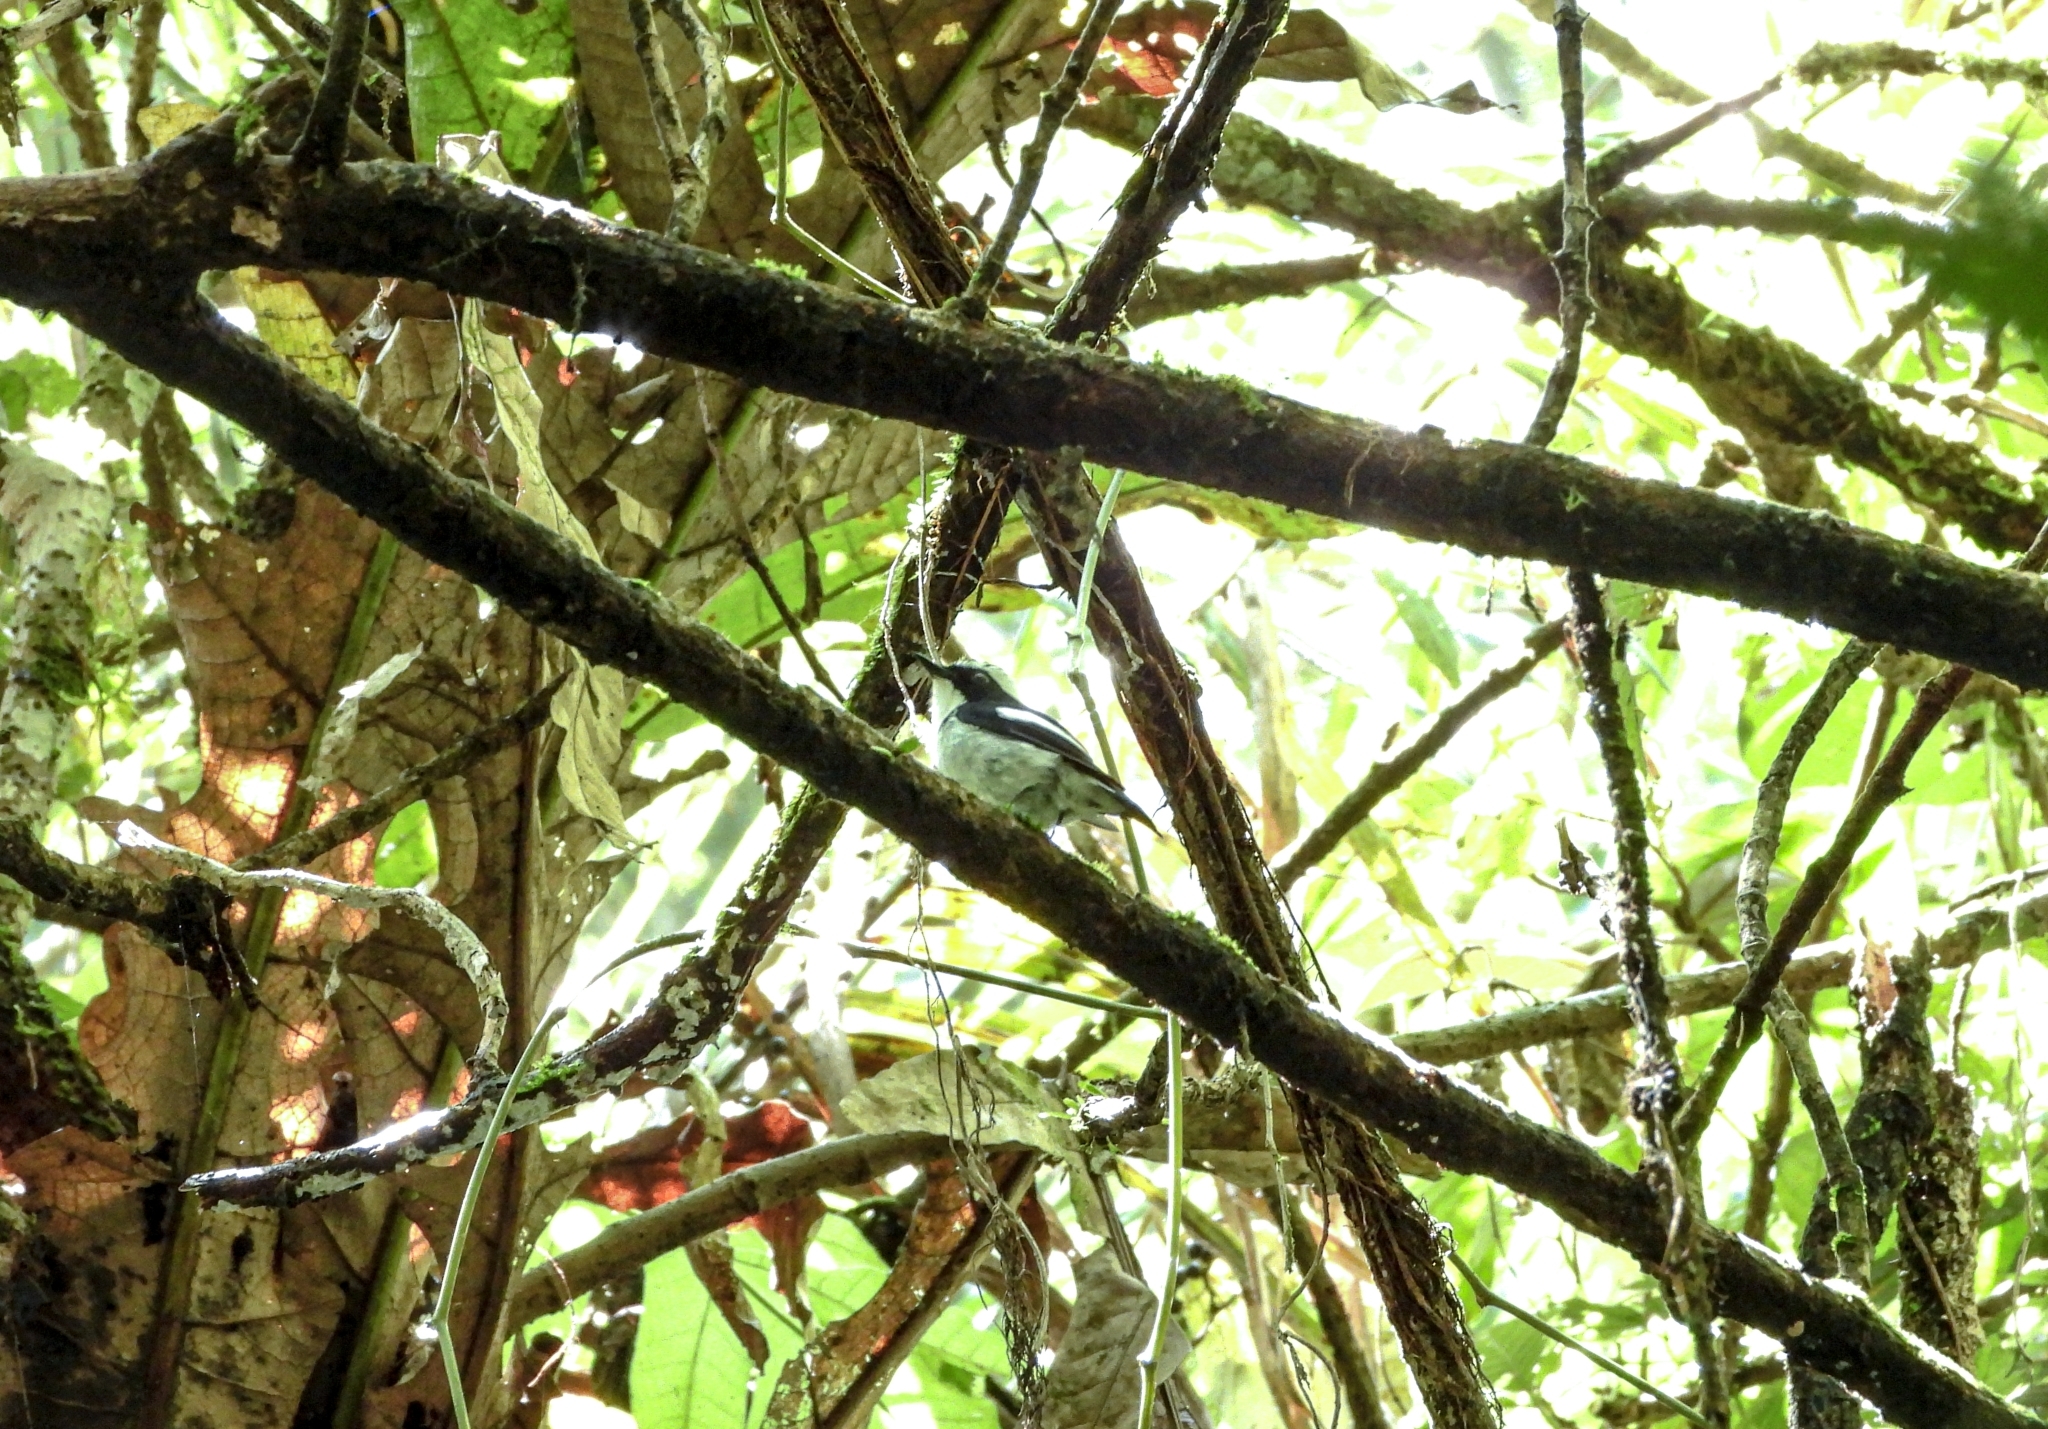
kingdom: Animalia
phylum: Chordata
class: Aves
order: Passeriformes
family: Muscicapidae
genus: Ficedula
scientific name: Ficedula westermanni
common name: Little pied flycatcher
